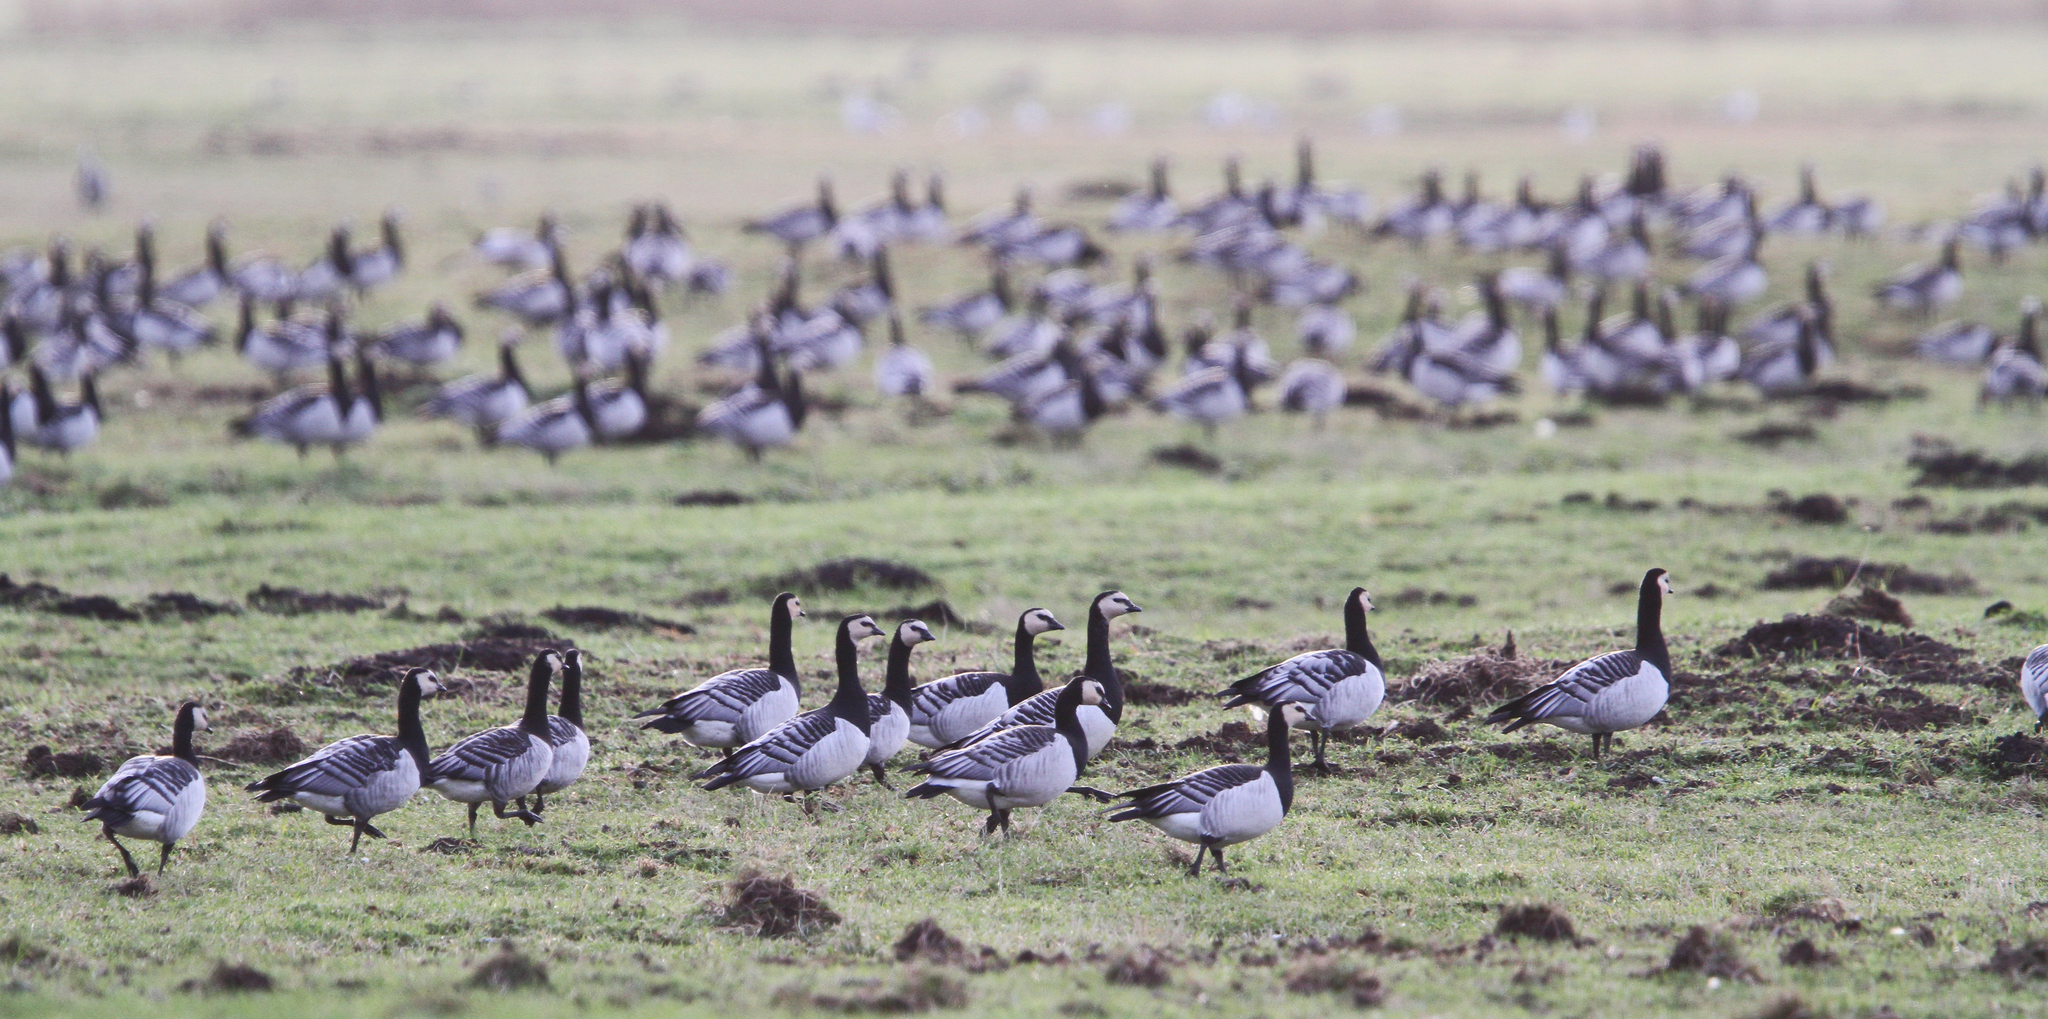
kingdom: Animalia
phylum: Chordata
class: Aves
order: Anseriformes
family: Anatidae
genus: Branta
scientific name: Branta leucopsis
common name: Barnacle goose
